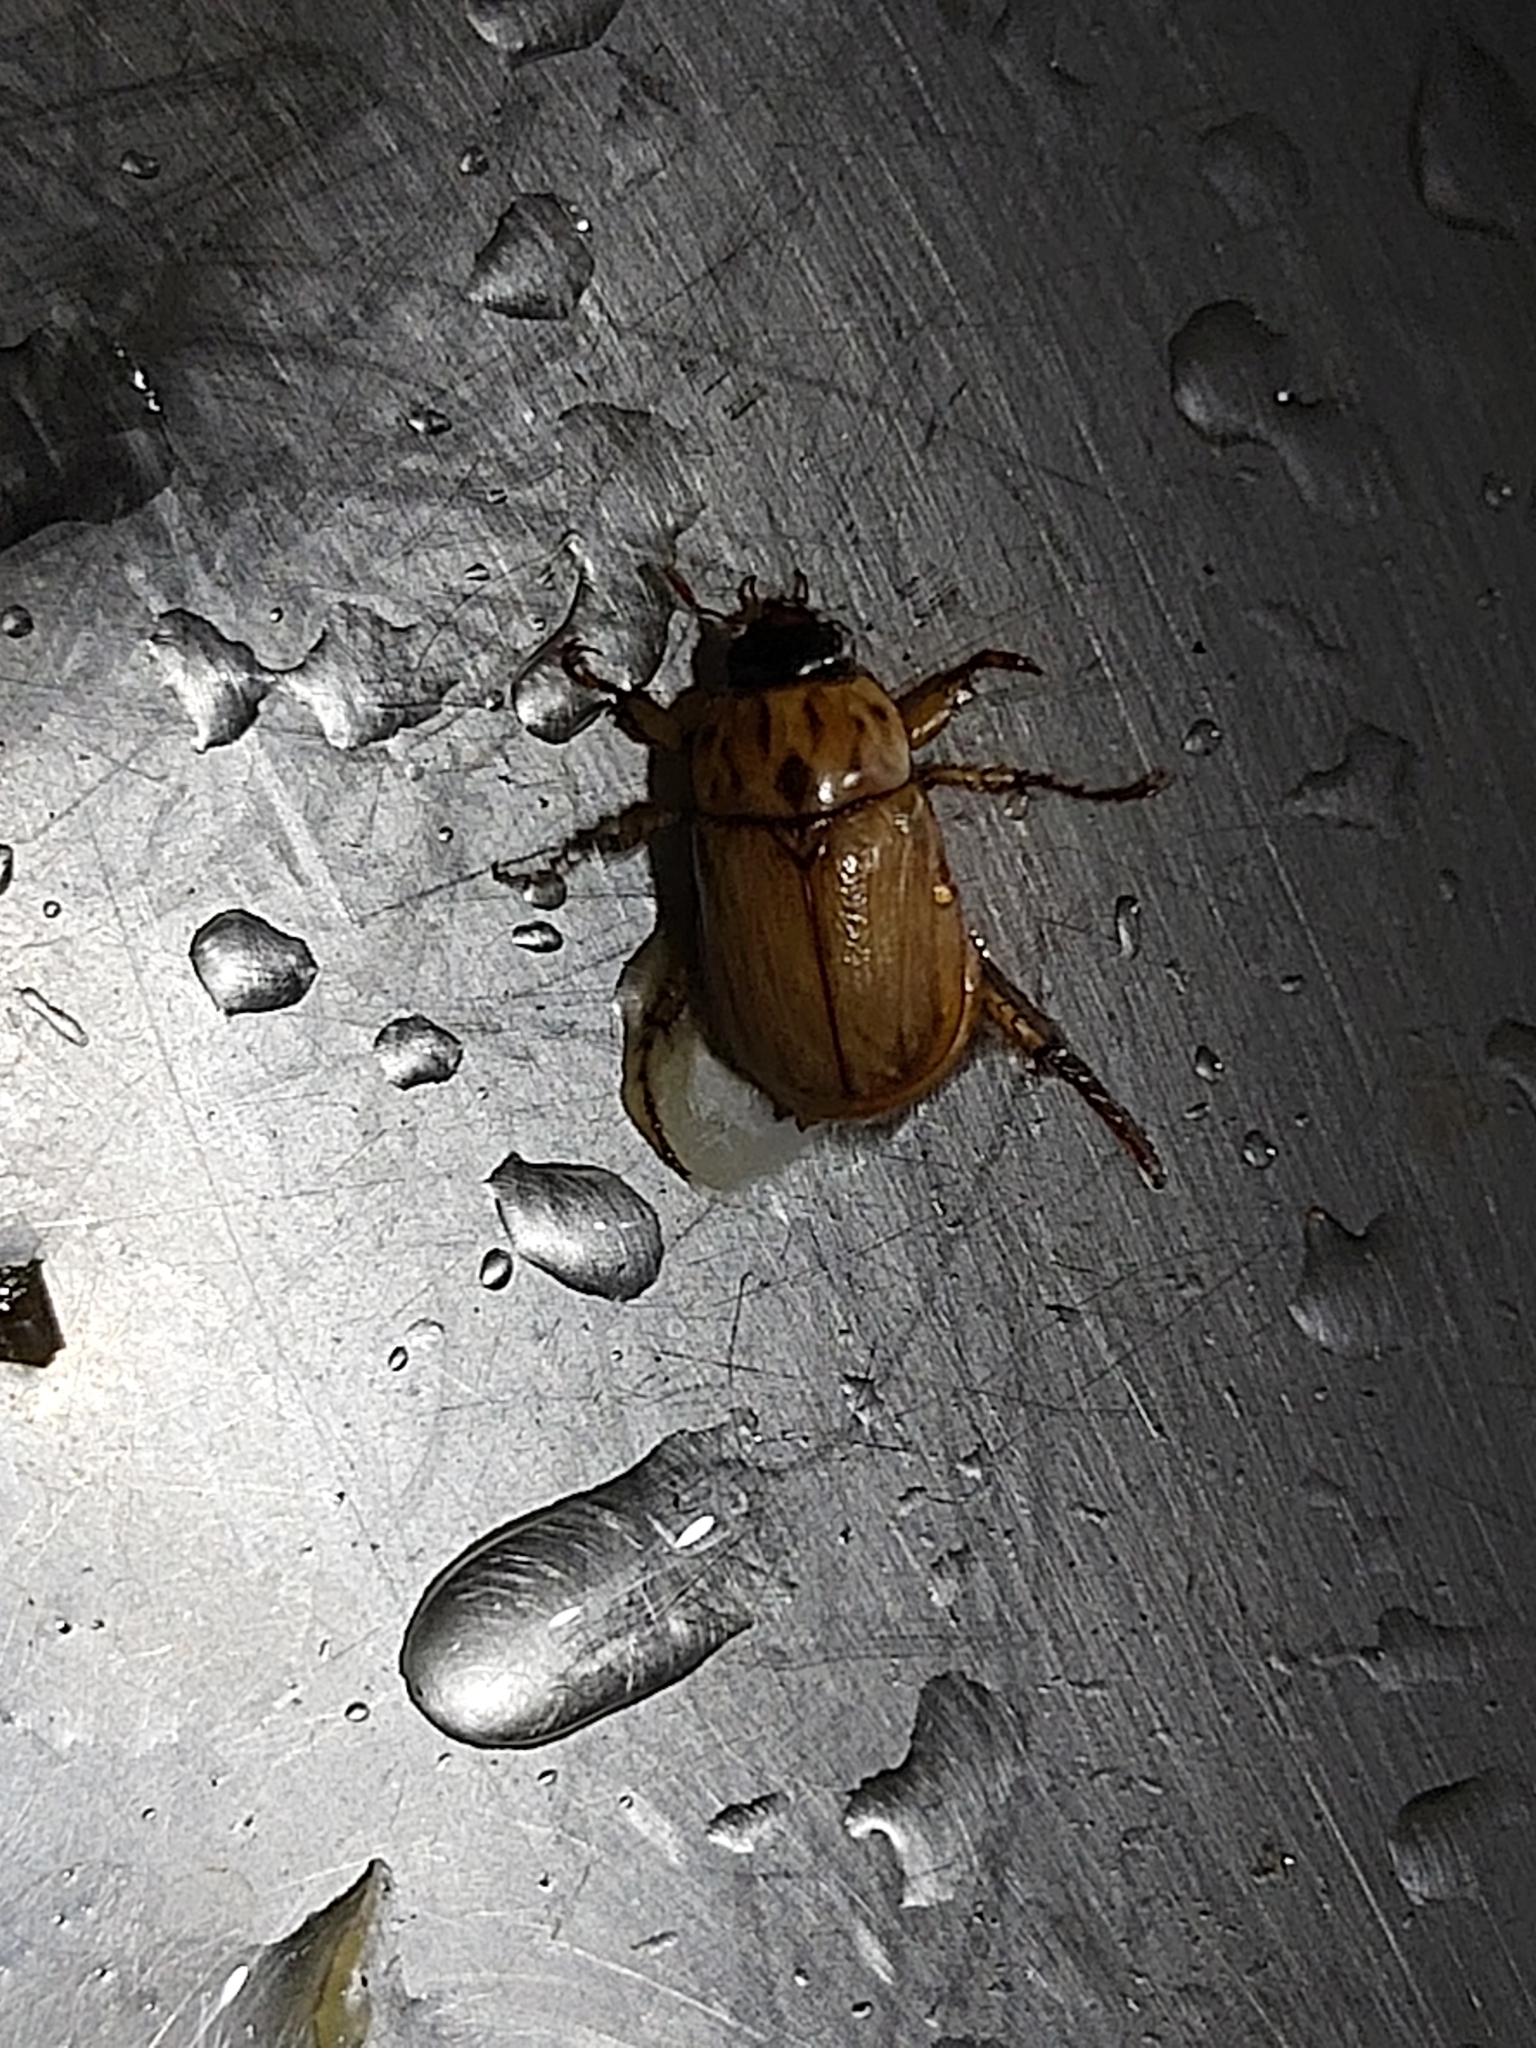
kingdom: Animalia
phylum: Arthropoda
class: Insecta
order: Coleoptera
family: Scarabaeidae
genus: Cyclocephala
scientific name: Cyclocephala signaticollis
